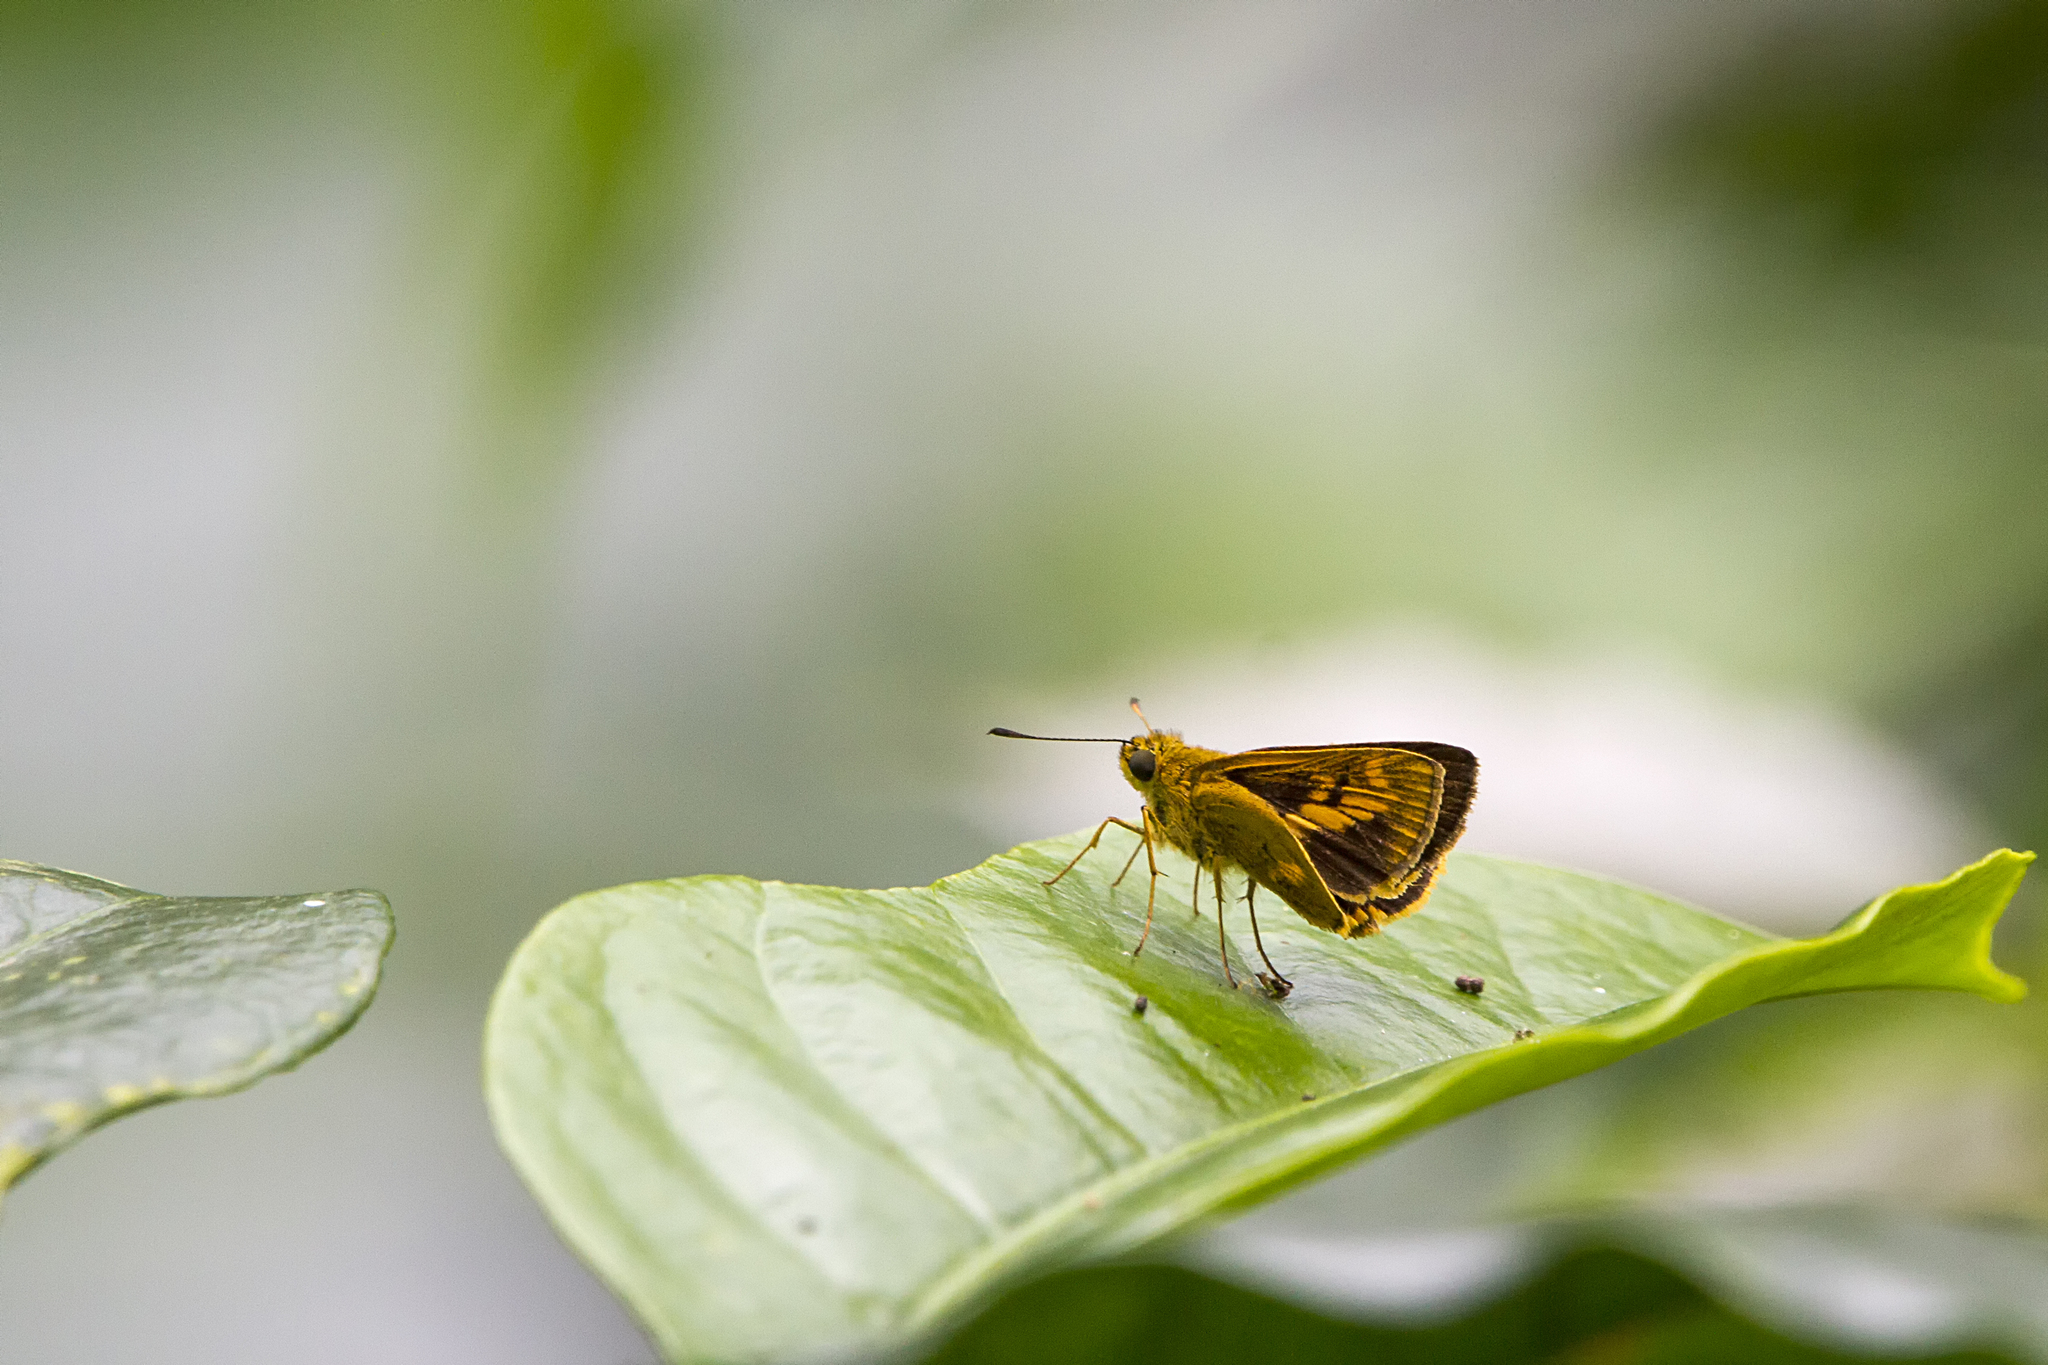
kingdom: Animalia
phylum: Arthropoda
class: Insecta
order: Lepidoptera
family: Hesperiidae
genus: Oriens
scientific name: Oriens goloides
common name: Smaller dartlet
